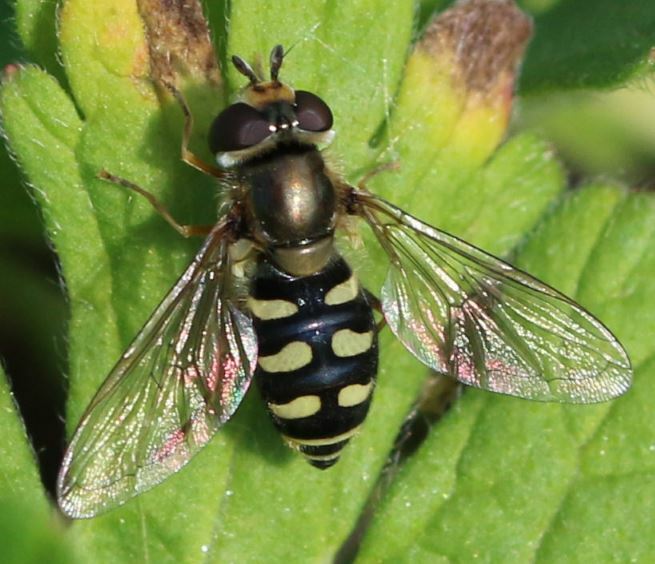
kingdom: Animalia
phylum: Arthropoda
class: Insecta
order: Diptera
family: Syrphidae
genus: Eupeodes
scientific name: Eupeodes corollae
